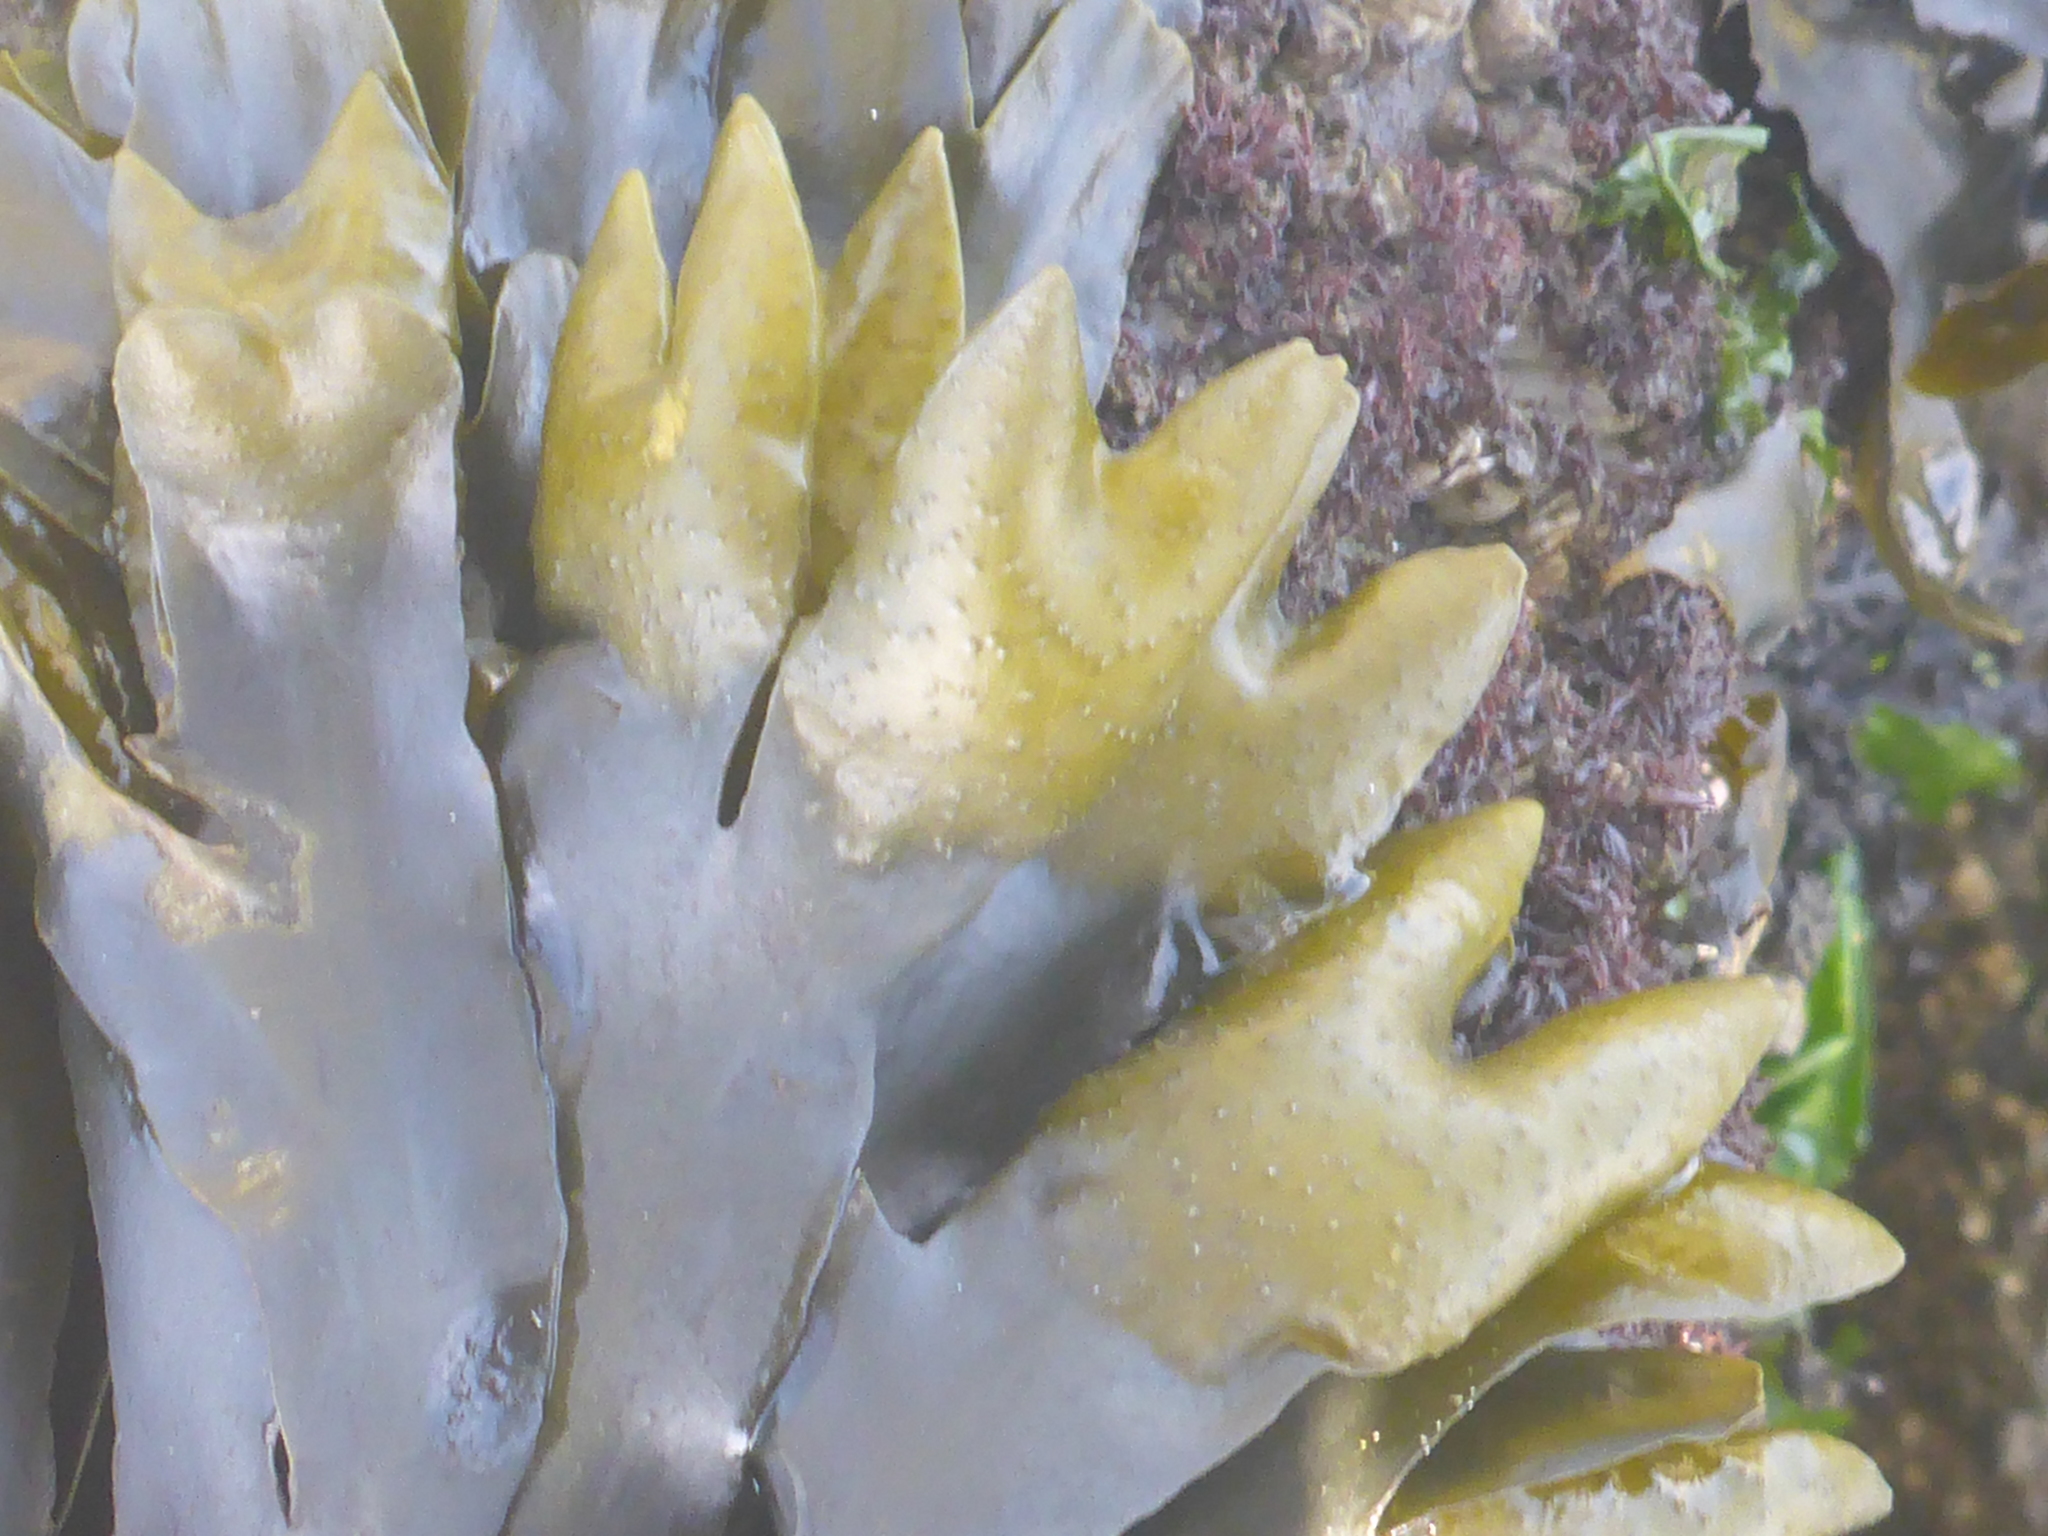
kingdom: Chromista
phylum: Ochrophyta
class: Phaeophyceae
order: Fucales
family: Fucaceae
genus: Fucus
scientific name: Fucus distichus
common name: Rockweed
